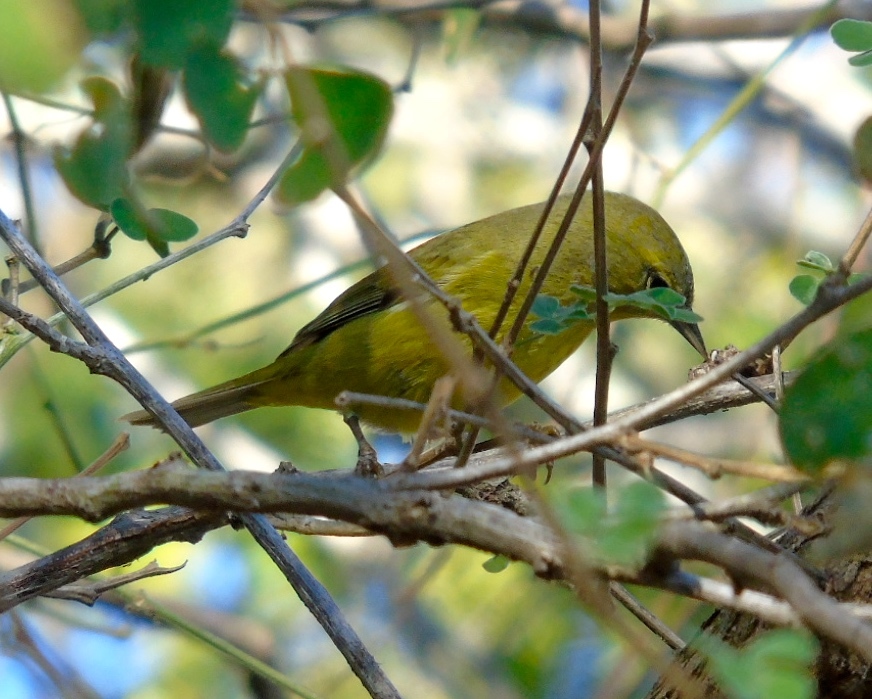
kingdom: Animalia
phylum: Chordata
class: Aves
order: Passeriformes
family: Parulidae
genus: Leiothlypis
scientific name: Leiothlypis celata
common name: Orange-crowned warbler
